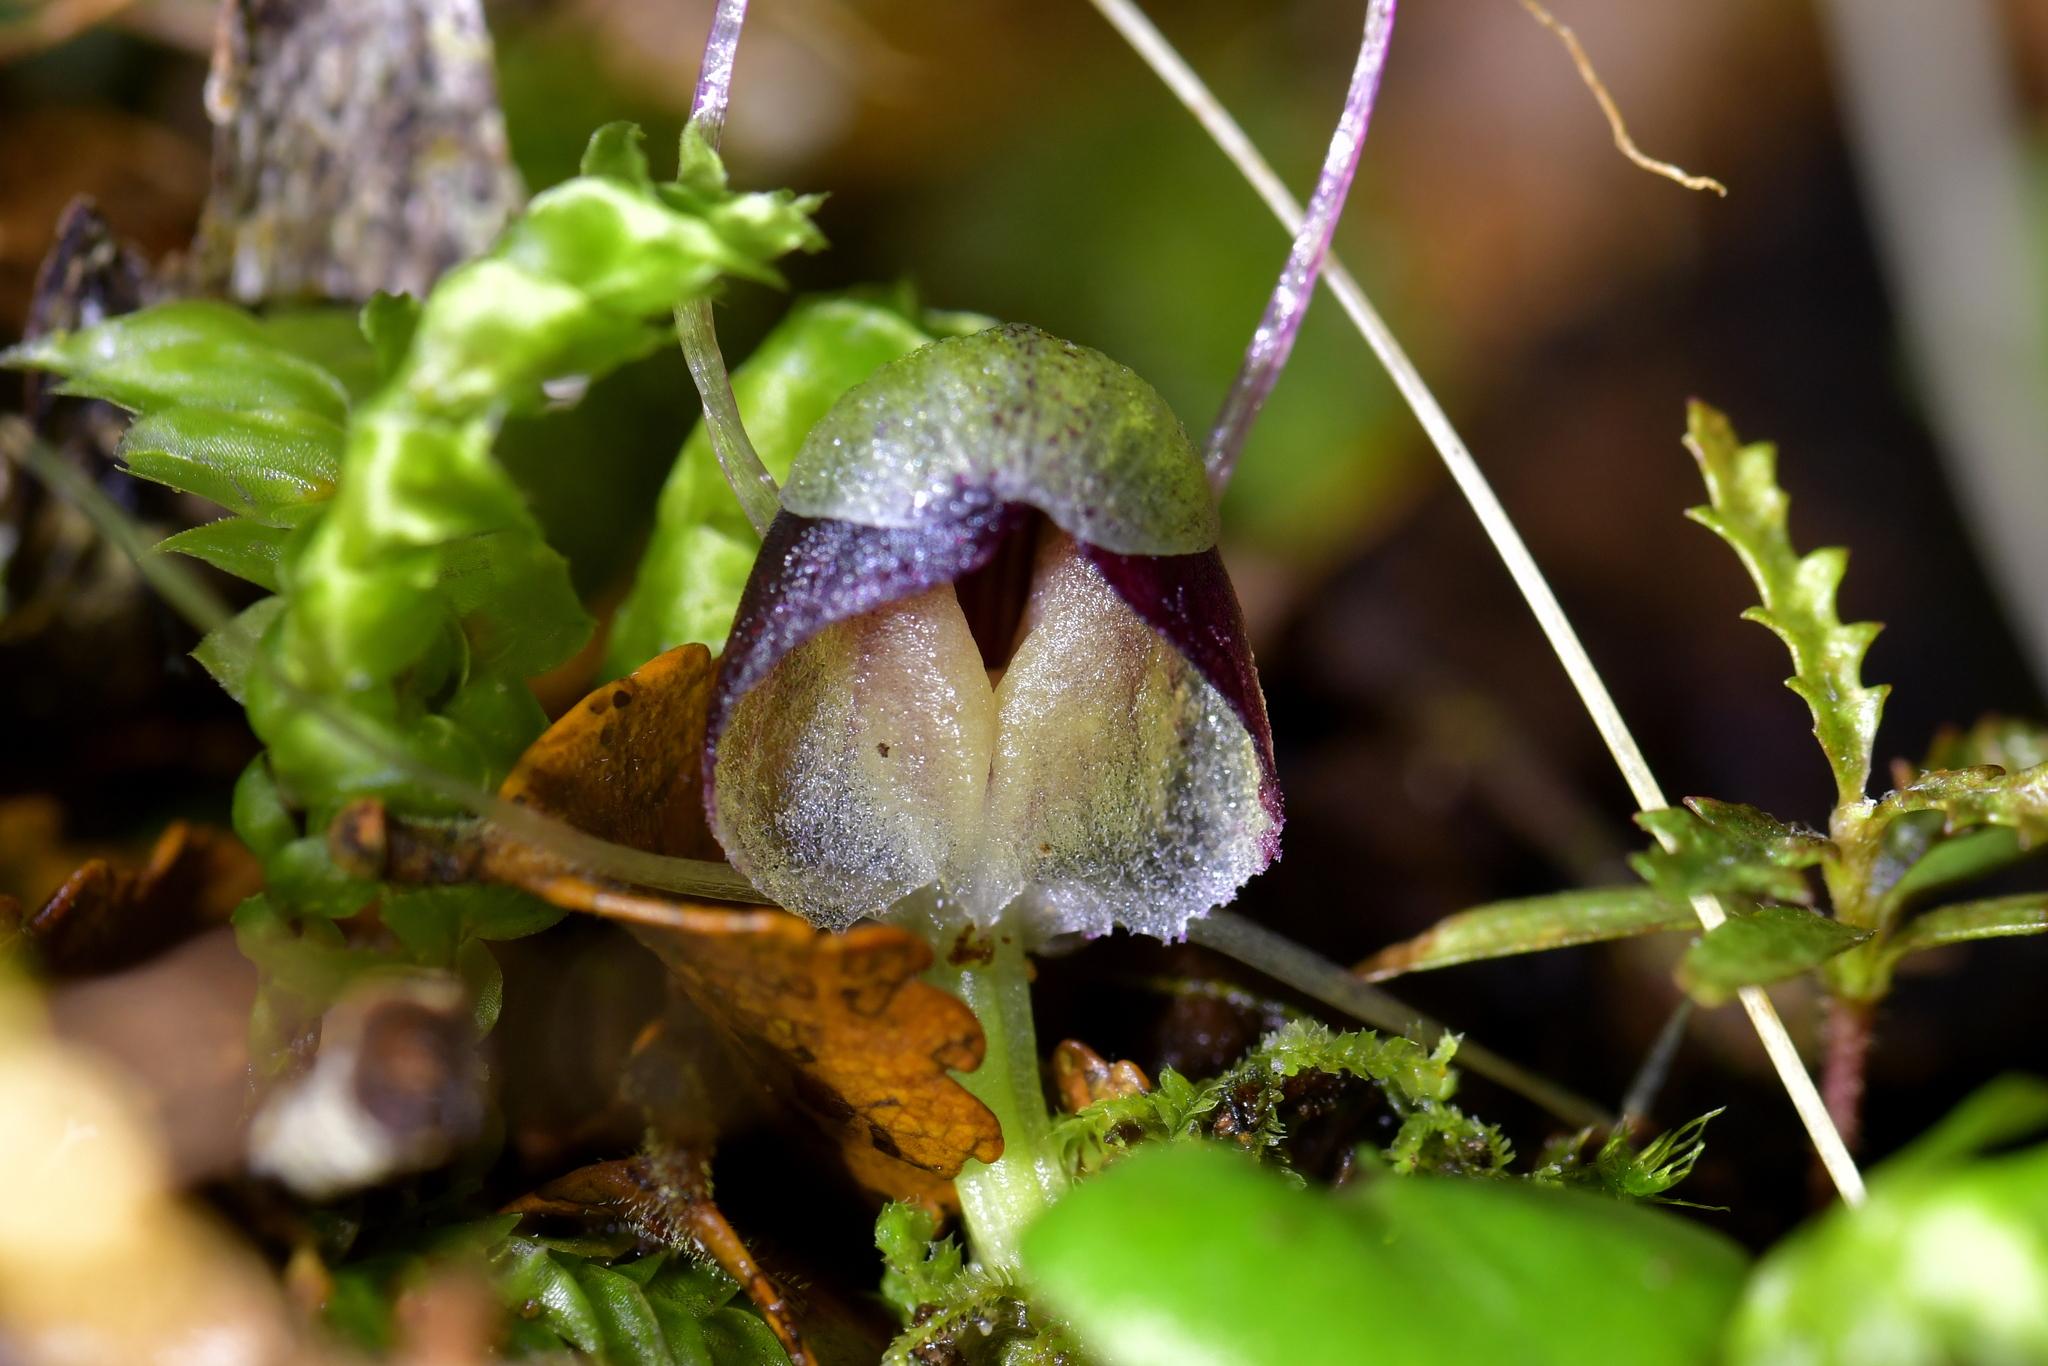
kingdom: Plantae
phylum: Tracheophyta
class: Liliopsida
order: Asparagales
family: Orchidaceae
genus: Corybas
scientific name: Corybas vitreus
